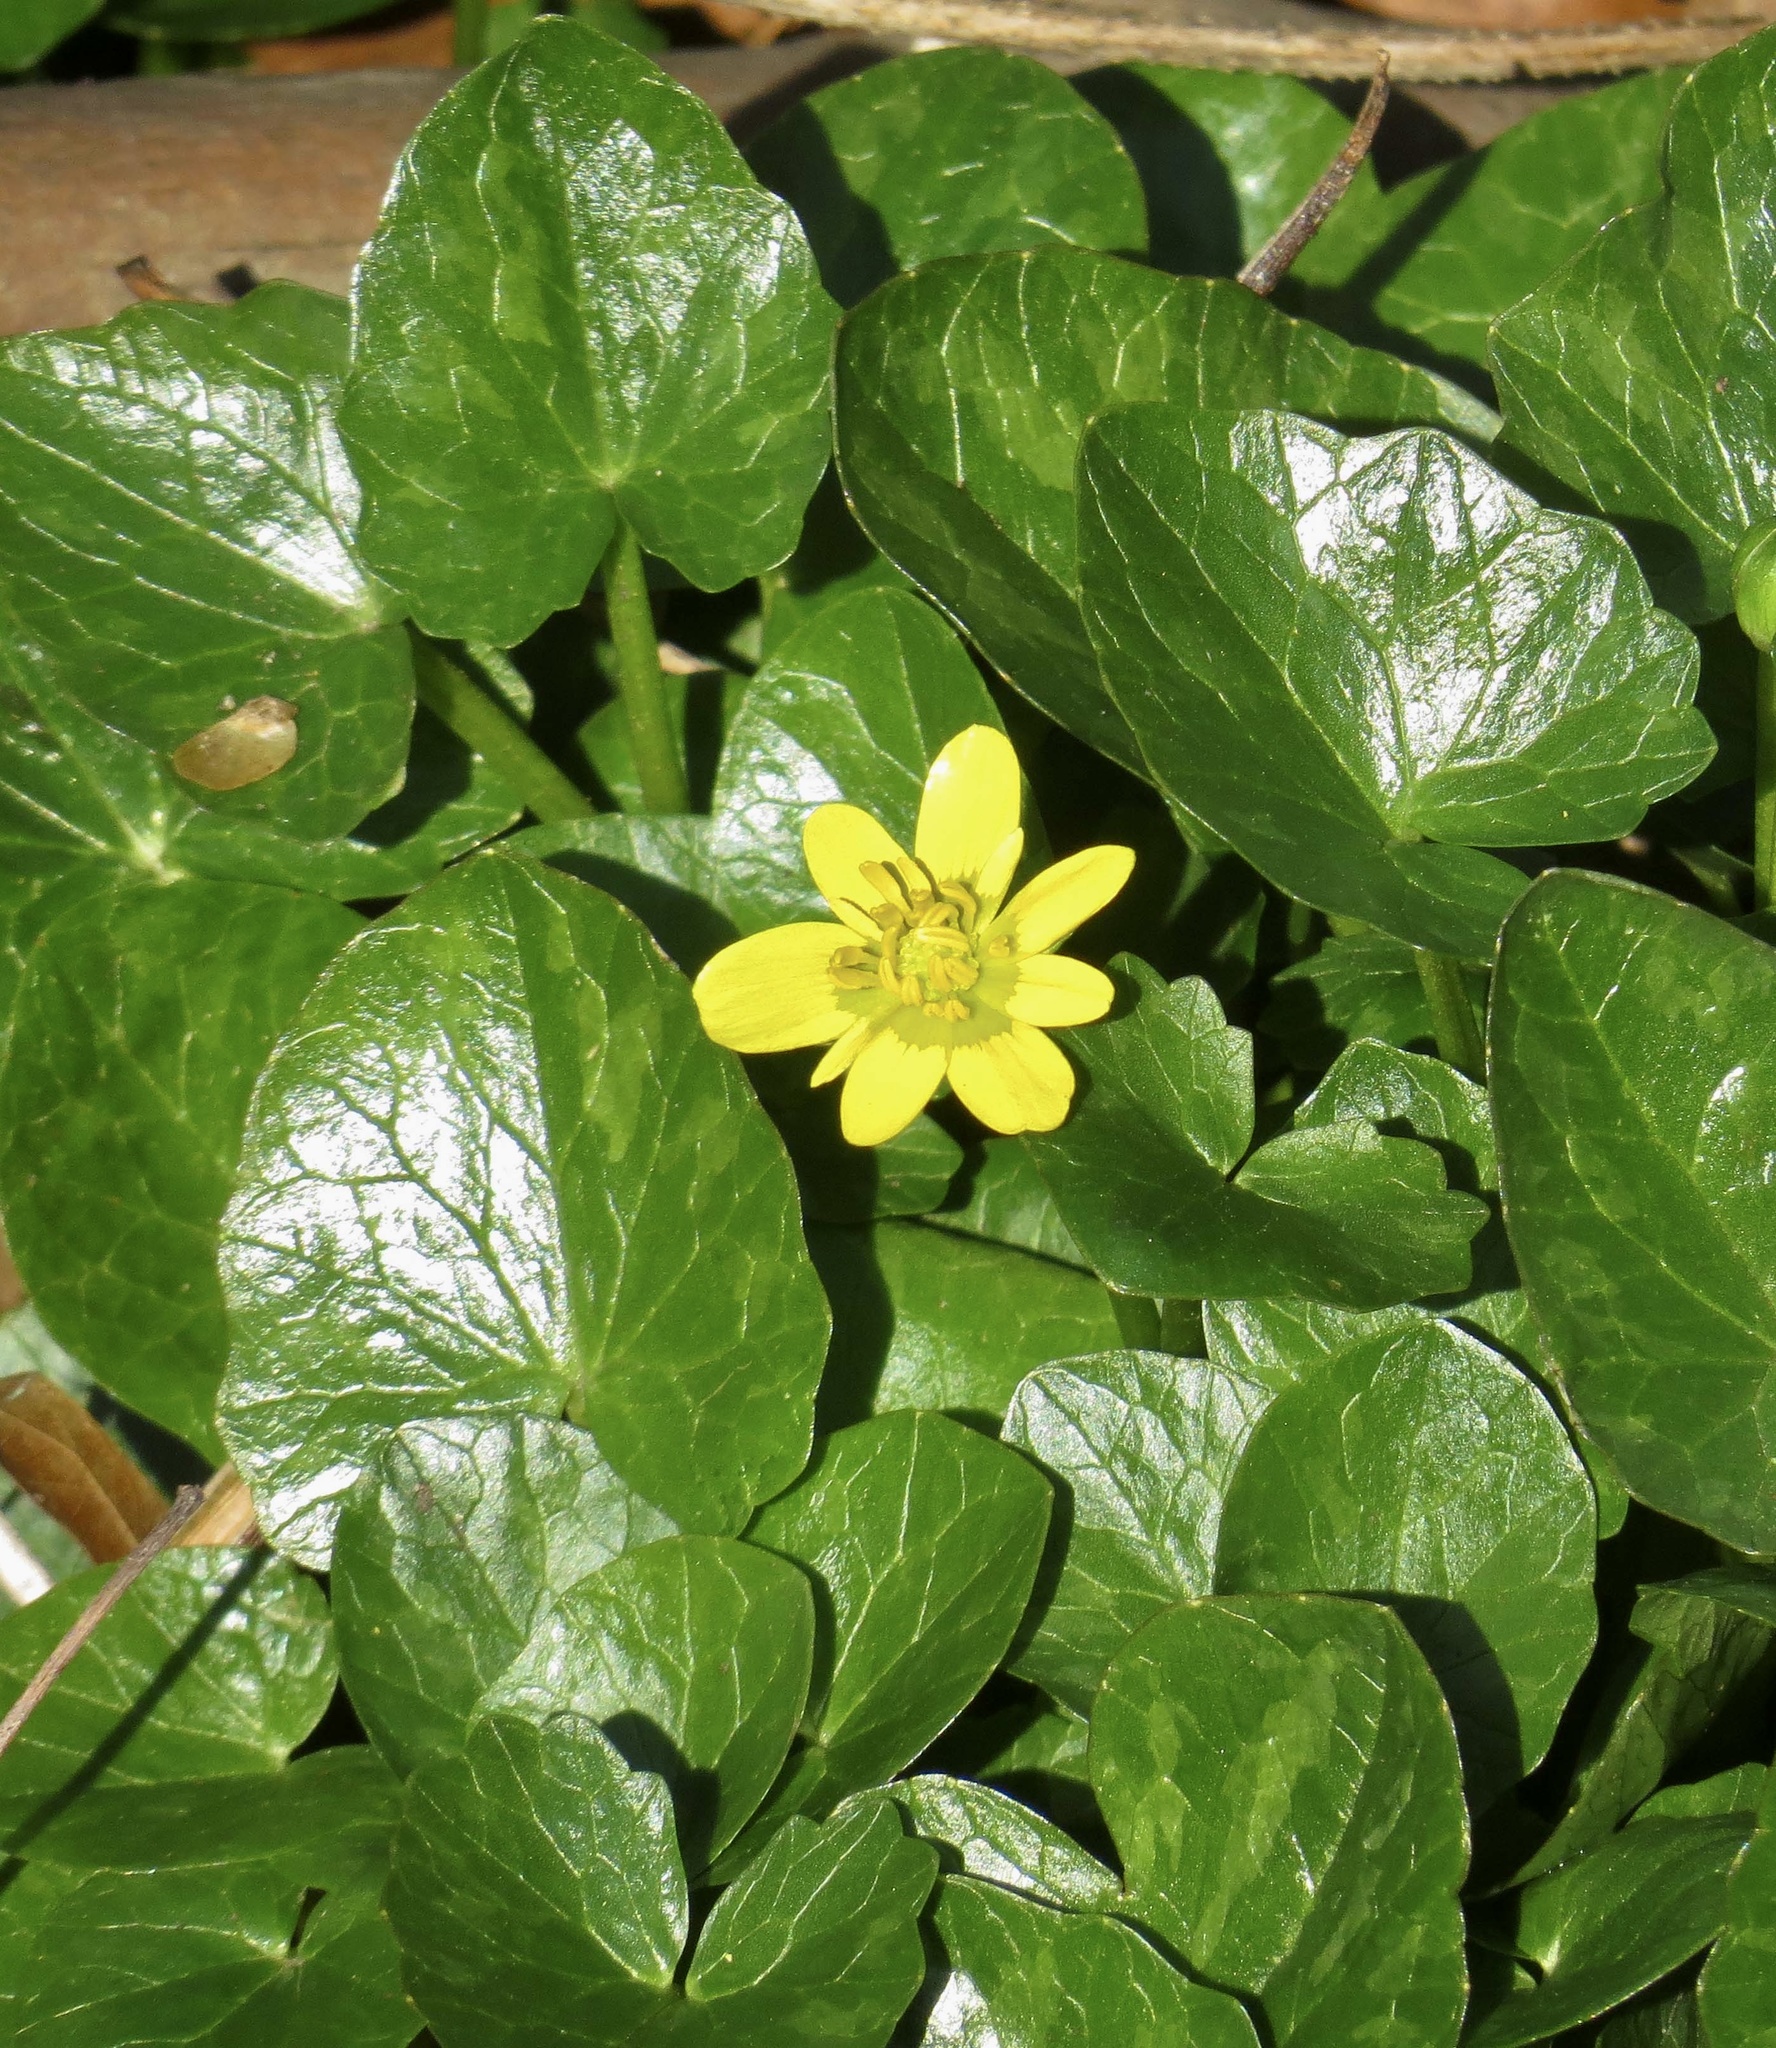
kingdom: Plantae
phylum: Tracheophyta
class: Magnoliopsida
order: Ranunculales
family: Ranunculaceae
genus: Ficaria
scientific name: Ficaria verna
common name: Lesser celandine
